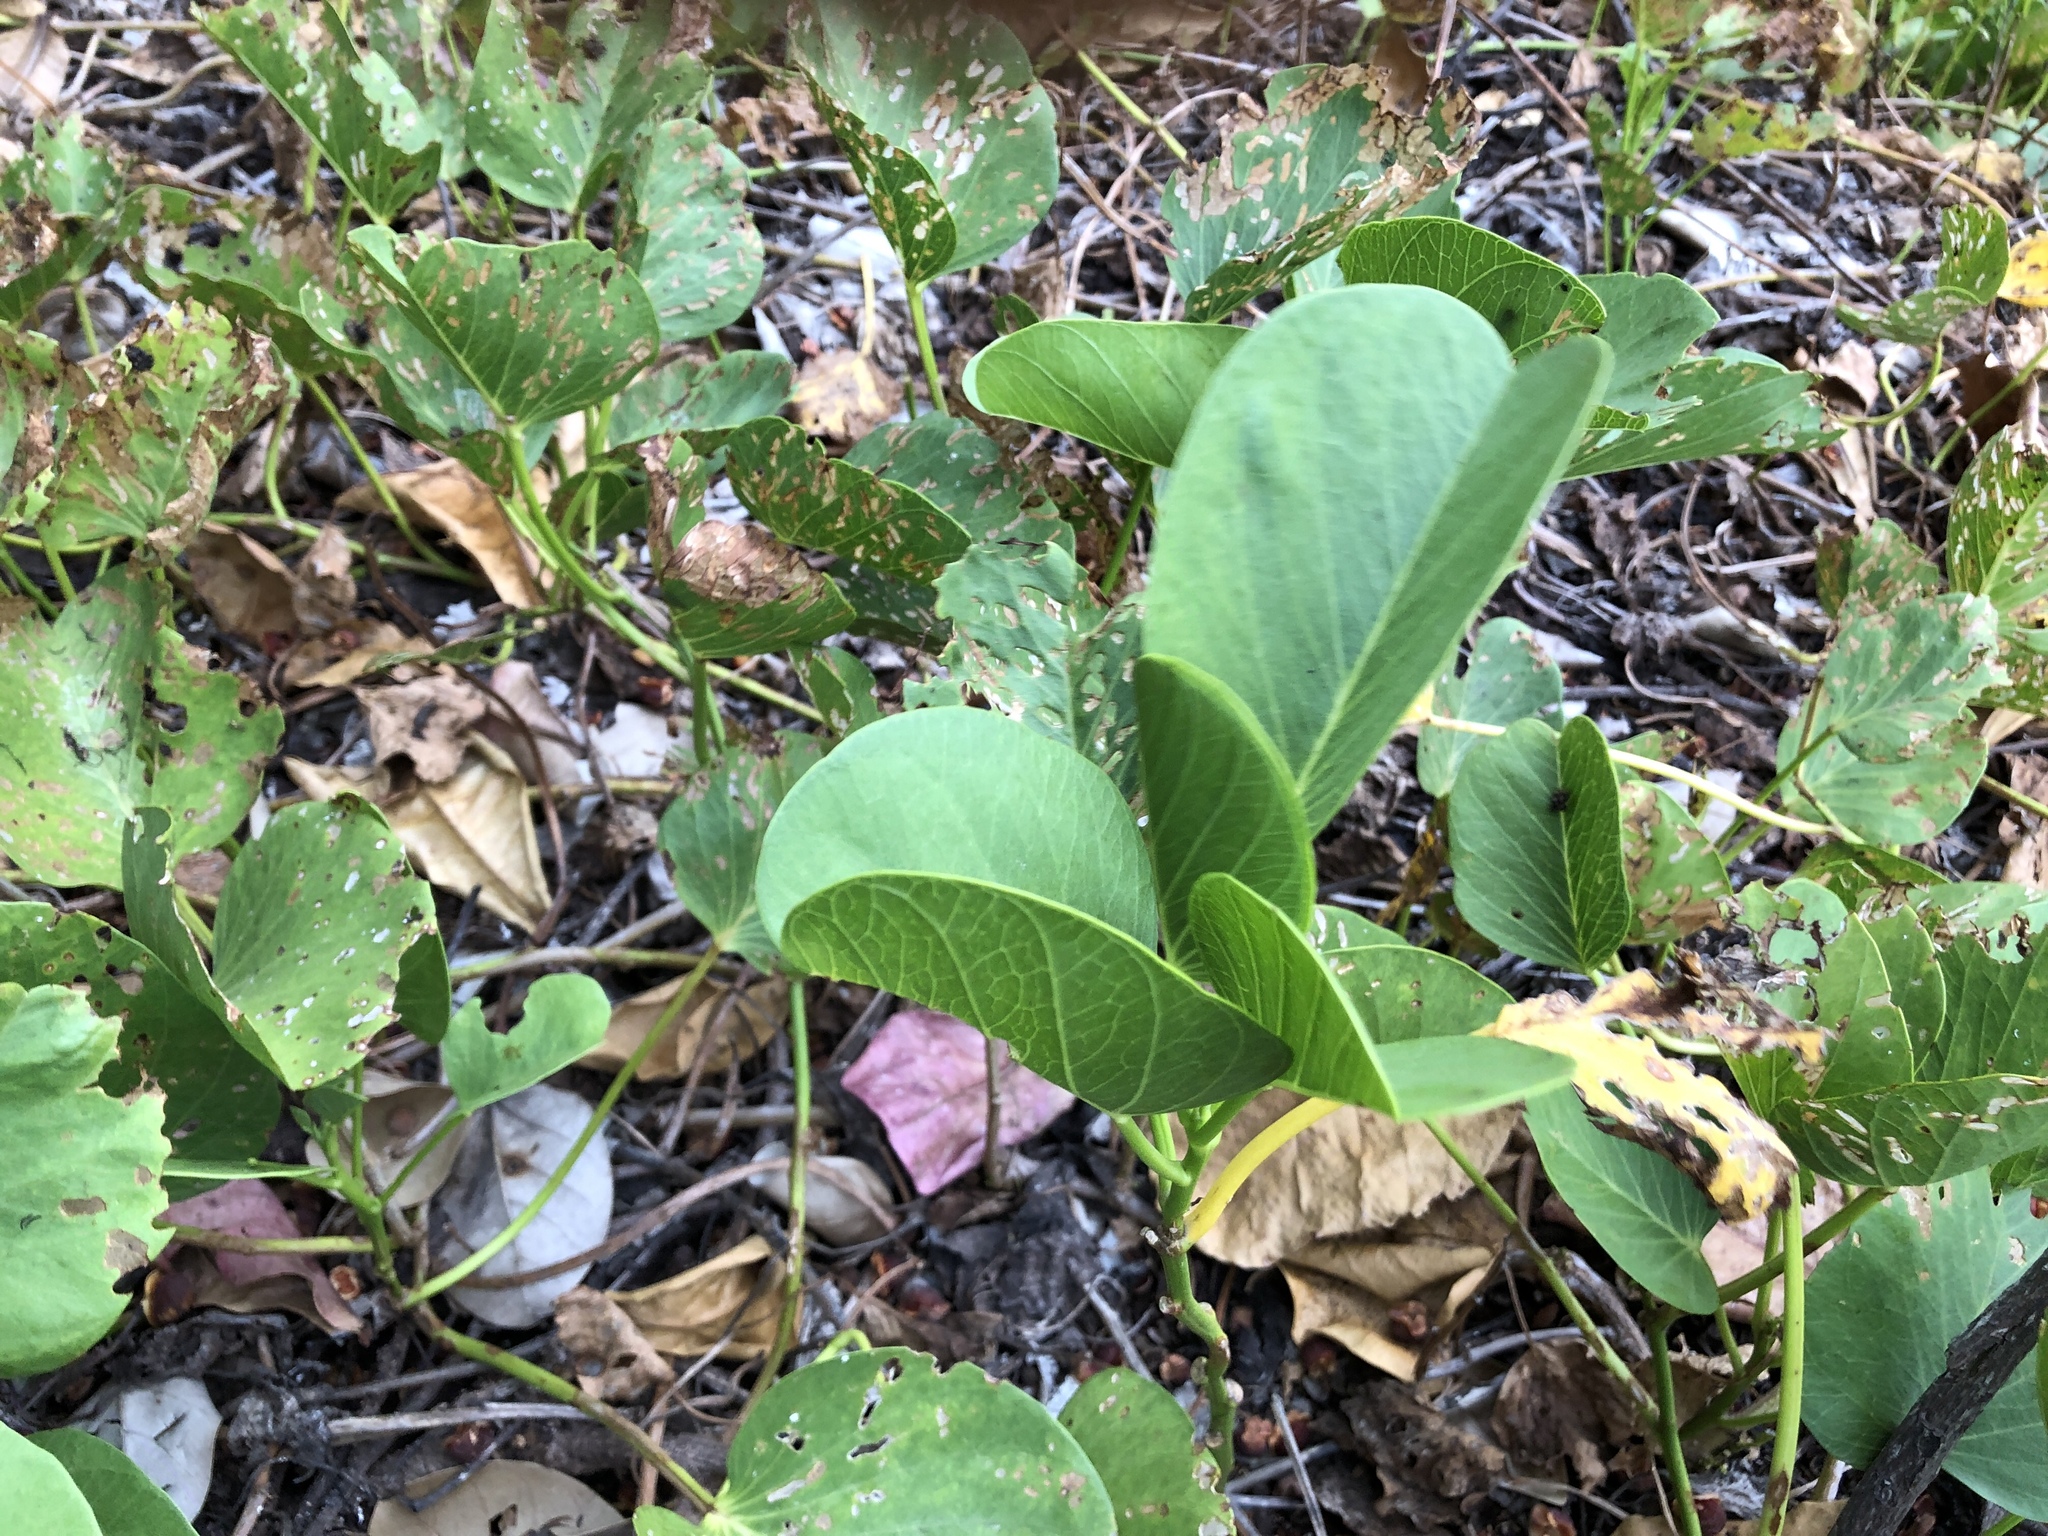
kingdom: Plantae
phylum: Tracheophyta
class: Magnoliopsida
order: Solanales
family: Convolvulaceae
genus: Ipomoea
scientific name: Ipomoea pes-caprae
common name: Beach morning glory
